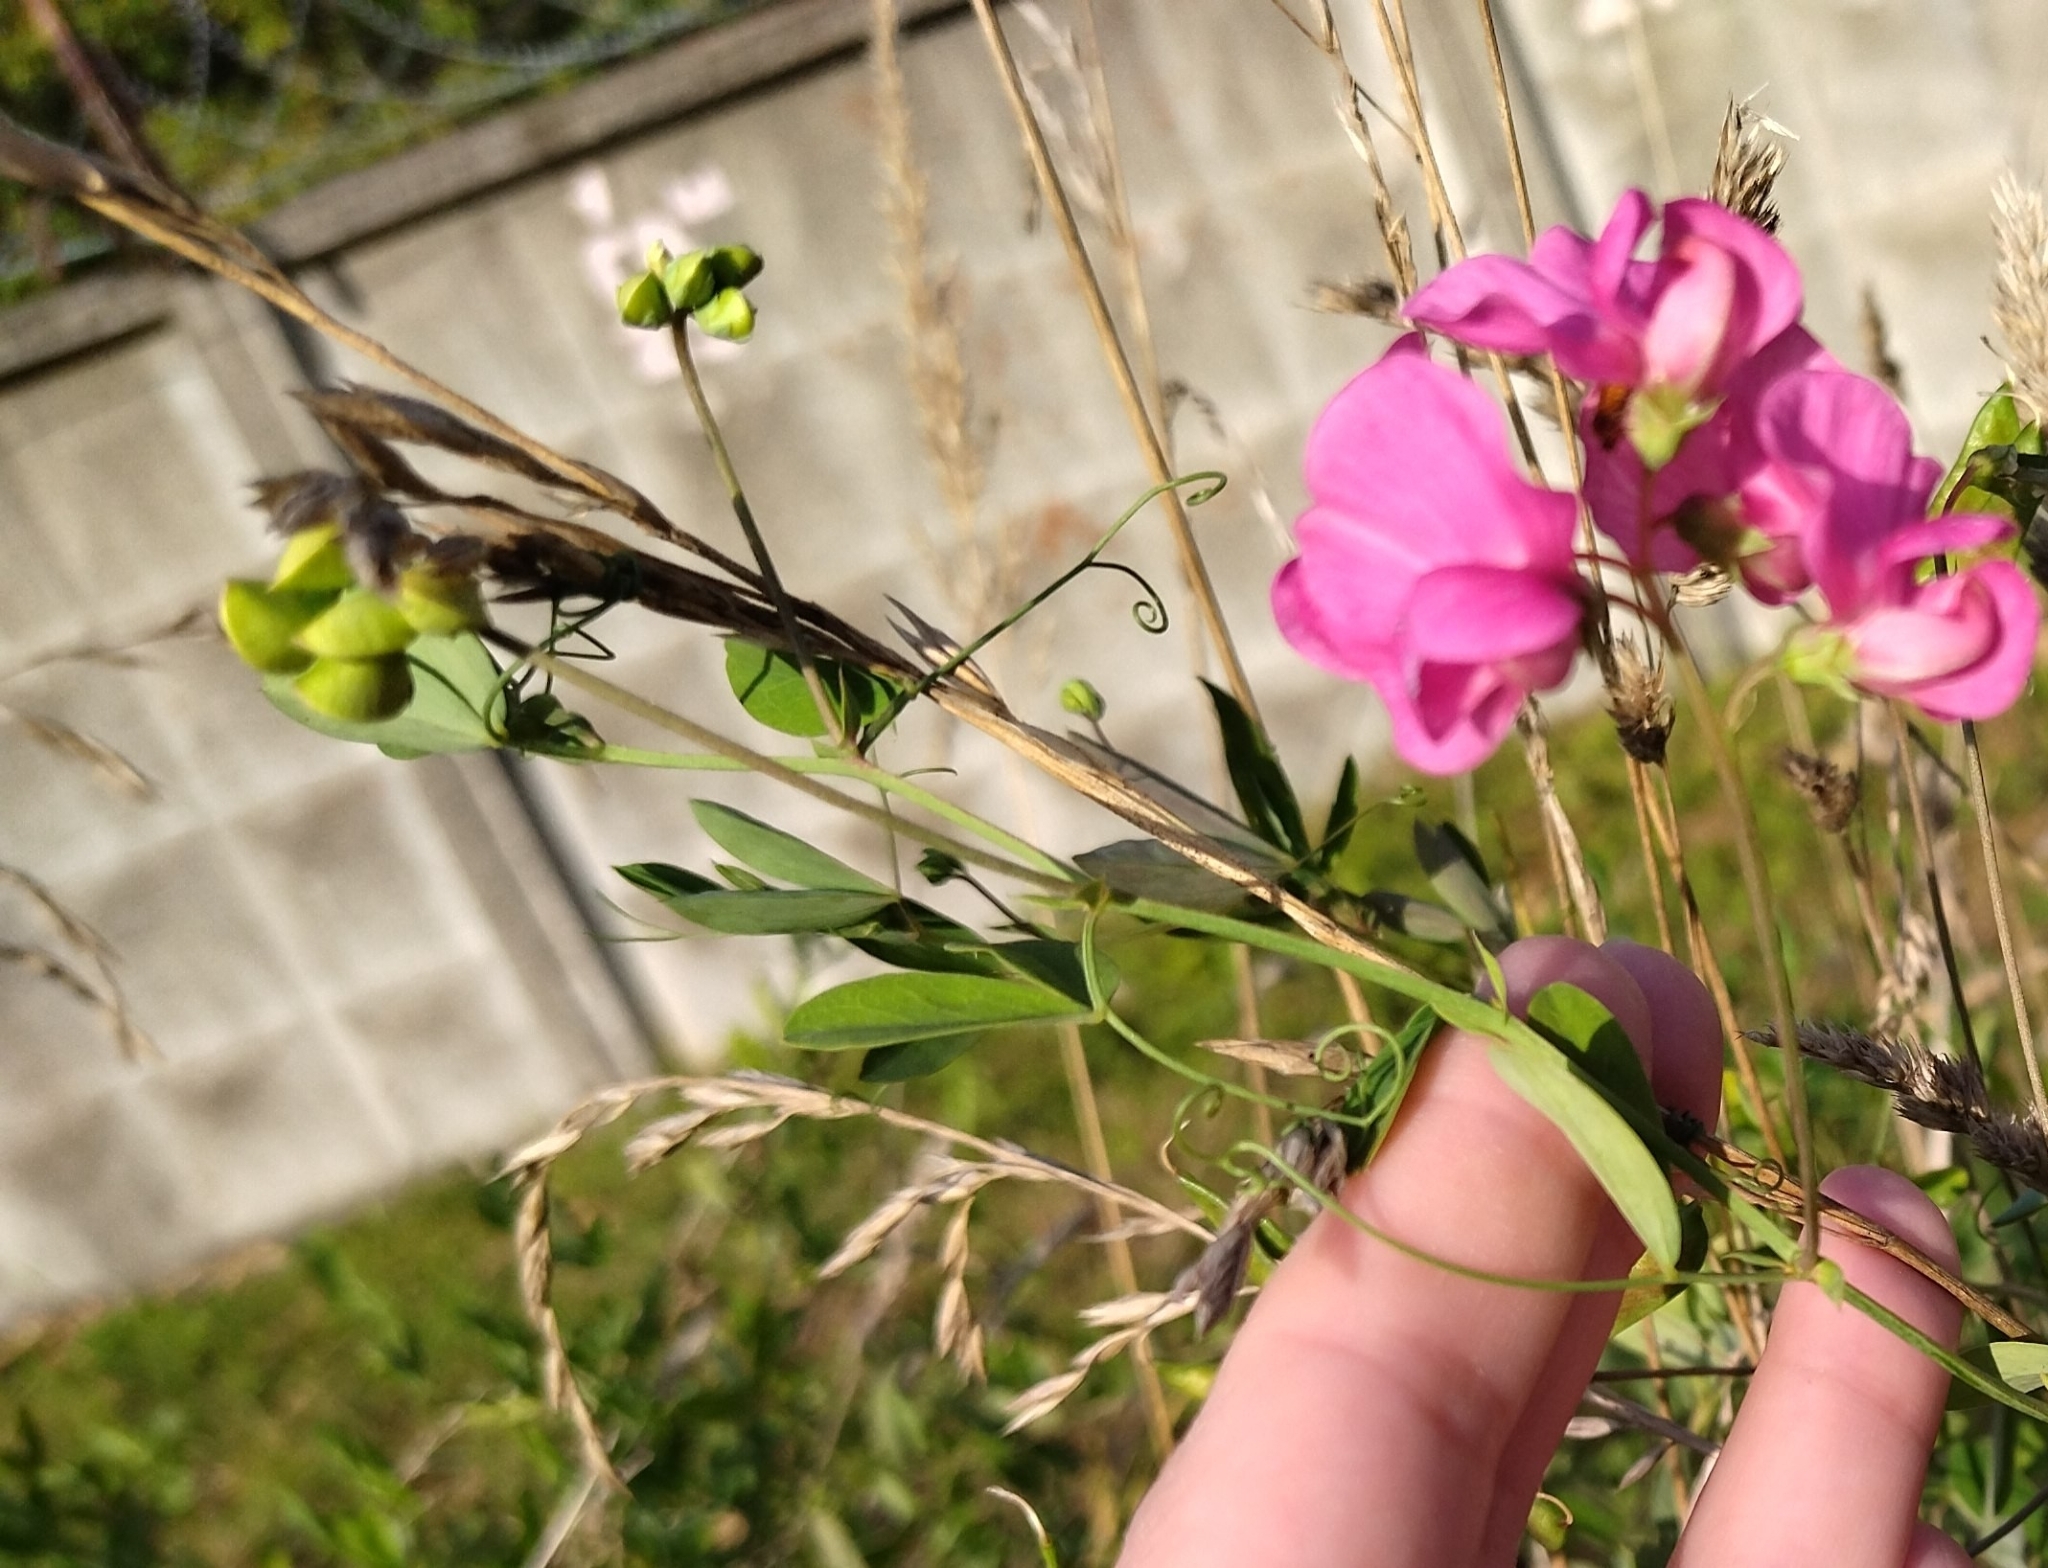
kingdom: Plantae
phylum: Tracheophyta
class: Magnoliopsida
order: Fabales
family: Fabaceae
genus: Lathyrus
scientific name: Lathyrus tuberosus
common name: Tuberous pea
